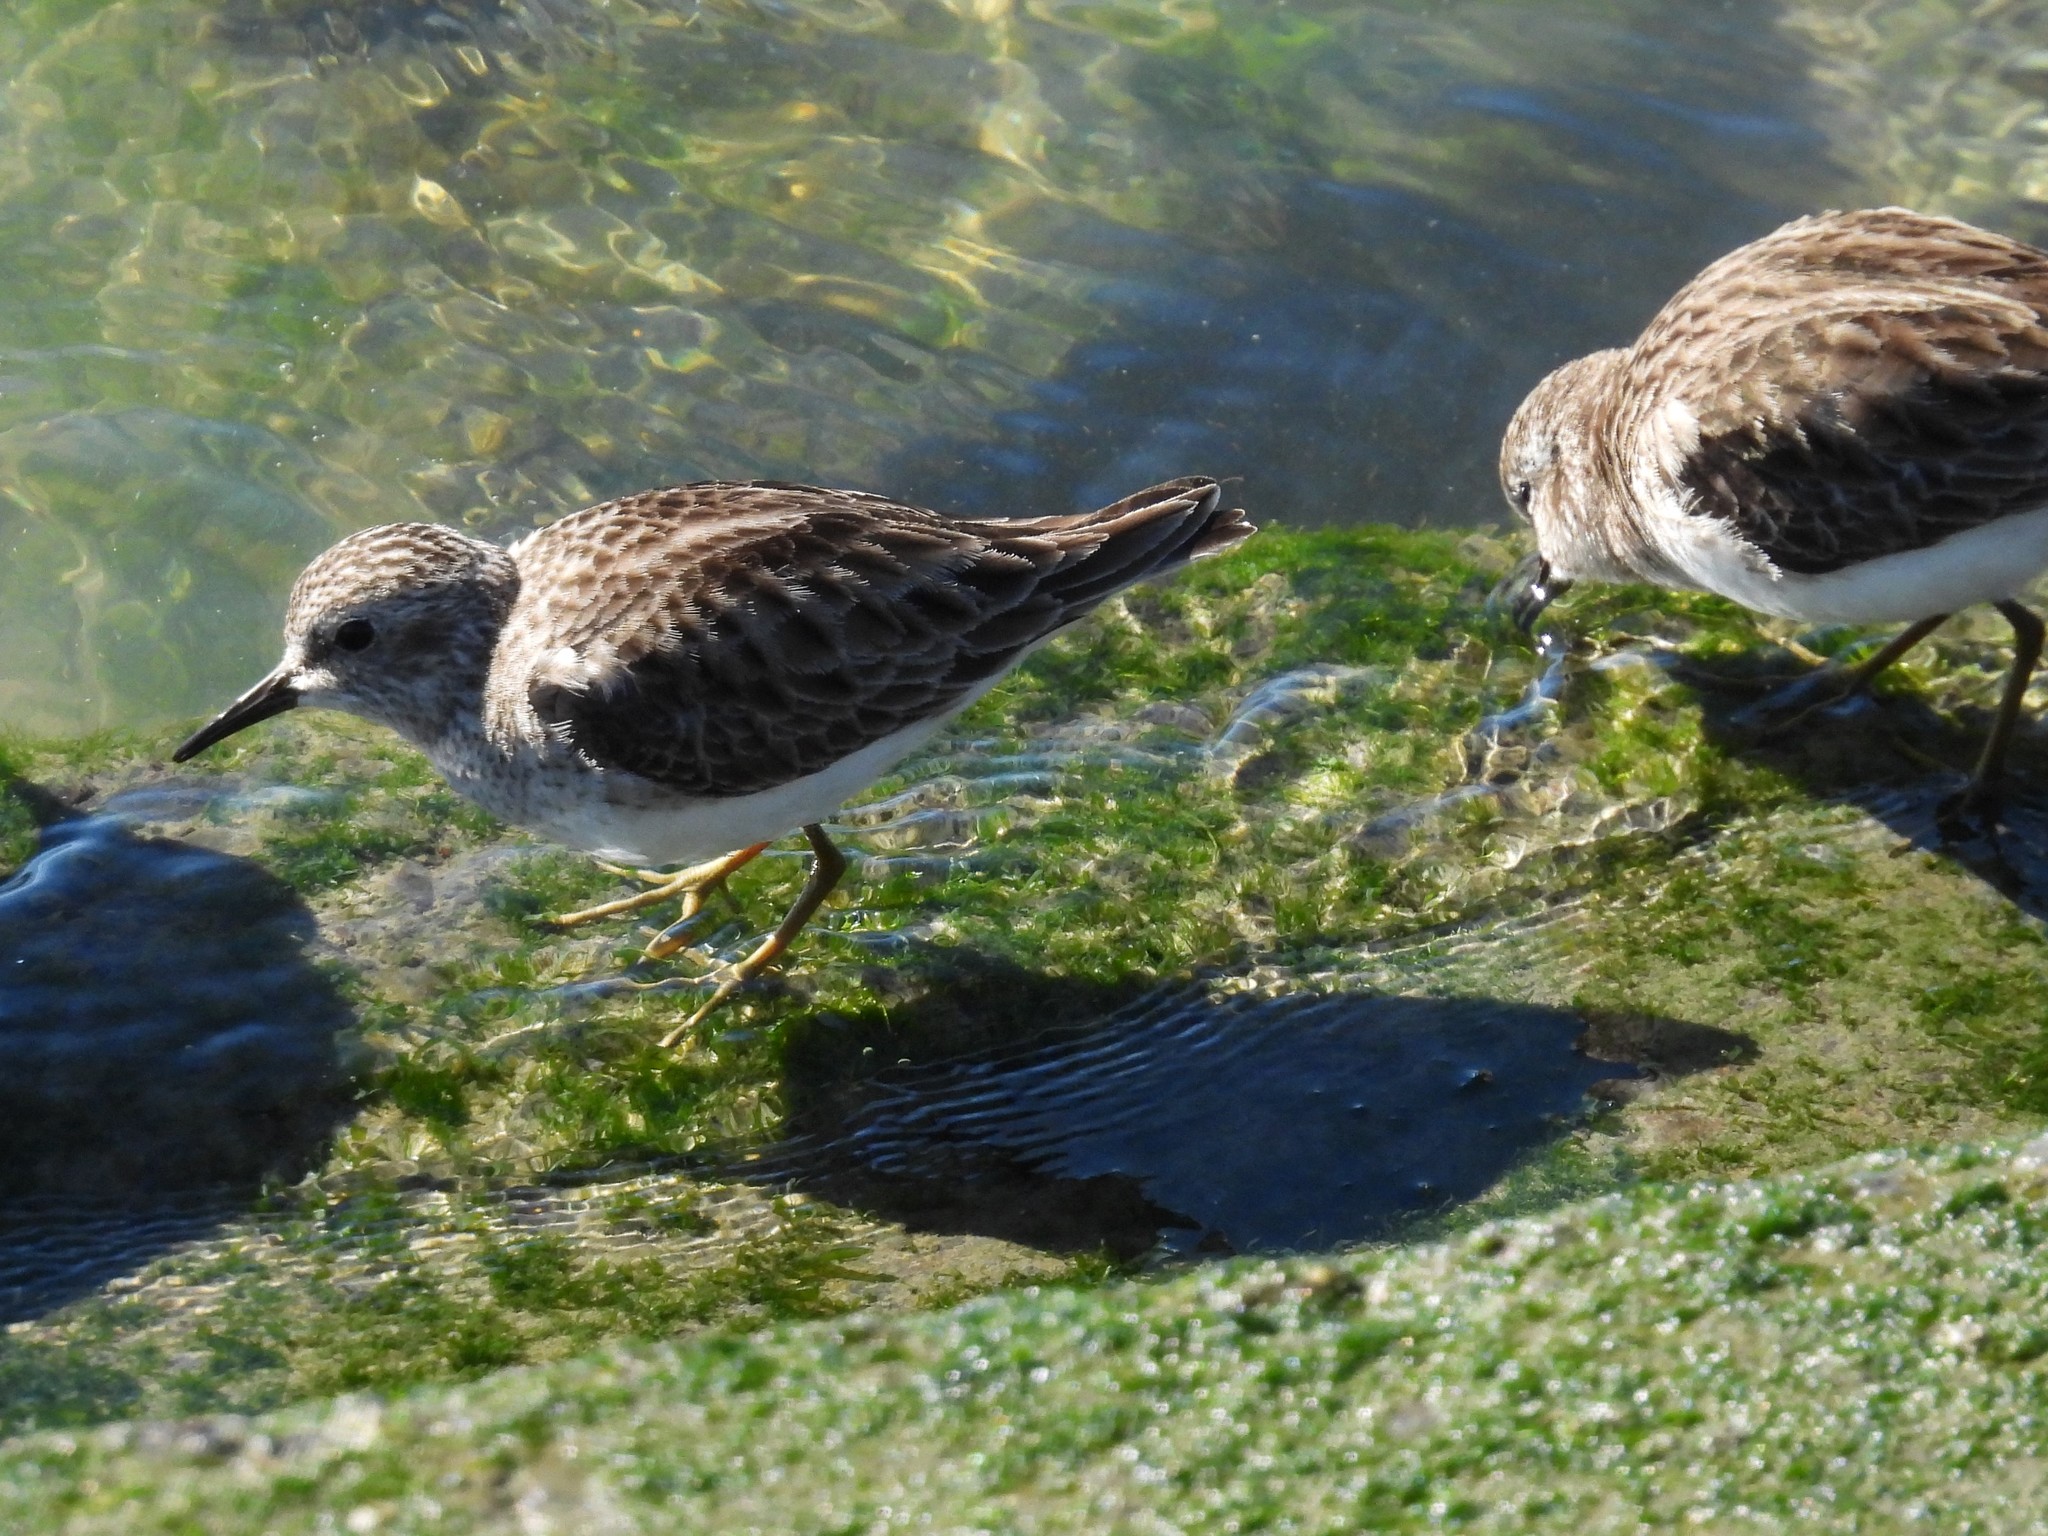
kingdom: Animalia
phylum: Chordata
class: Aves
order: Charadriiformes
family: Scolopacidae
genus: Calidris
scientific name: Calidris minutilla
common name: Least sandpiper
